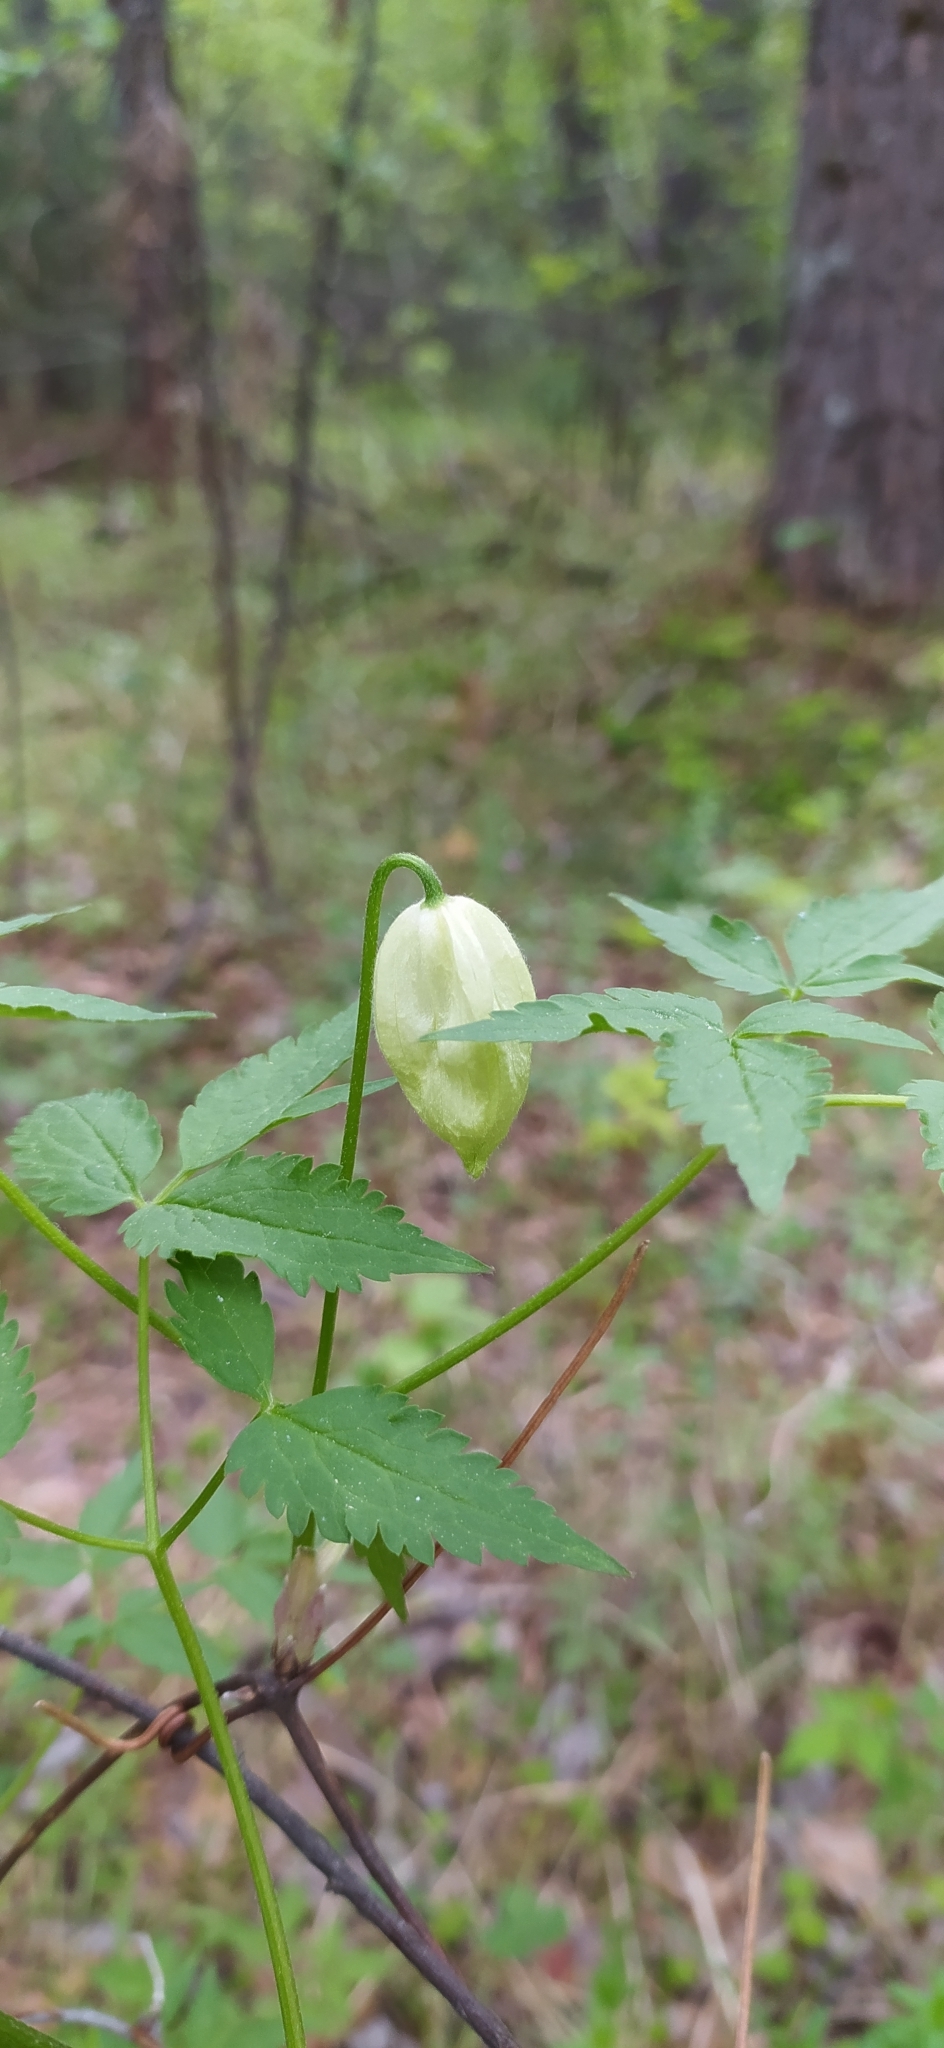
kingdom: Plantae
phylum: Tracheophyta
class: Magnoliopsida
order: Ranunculales
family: Ranunculaceae
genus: Clematis
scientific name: Clematis sibirica
